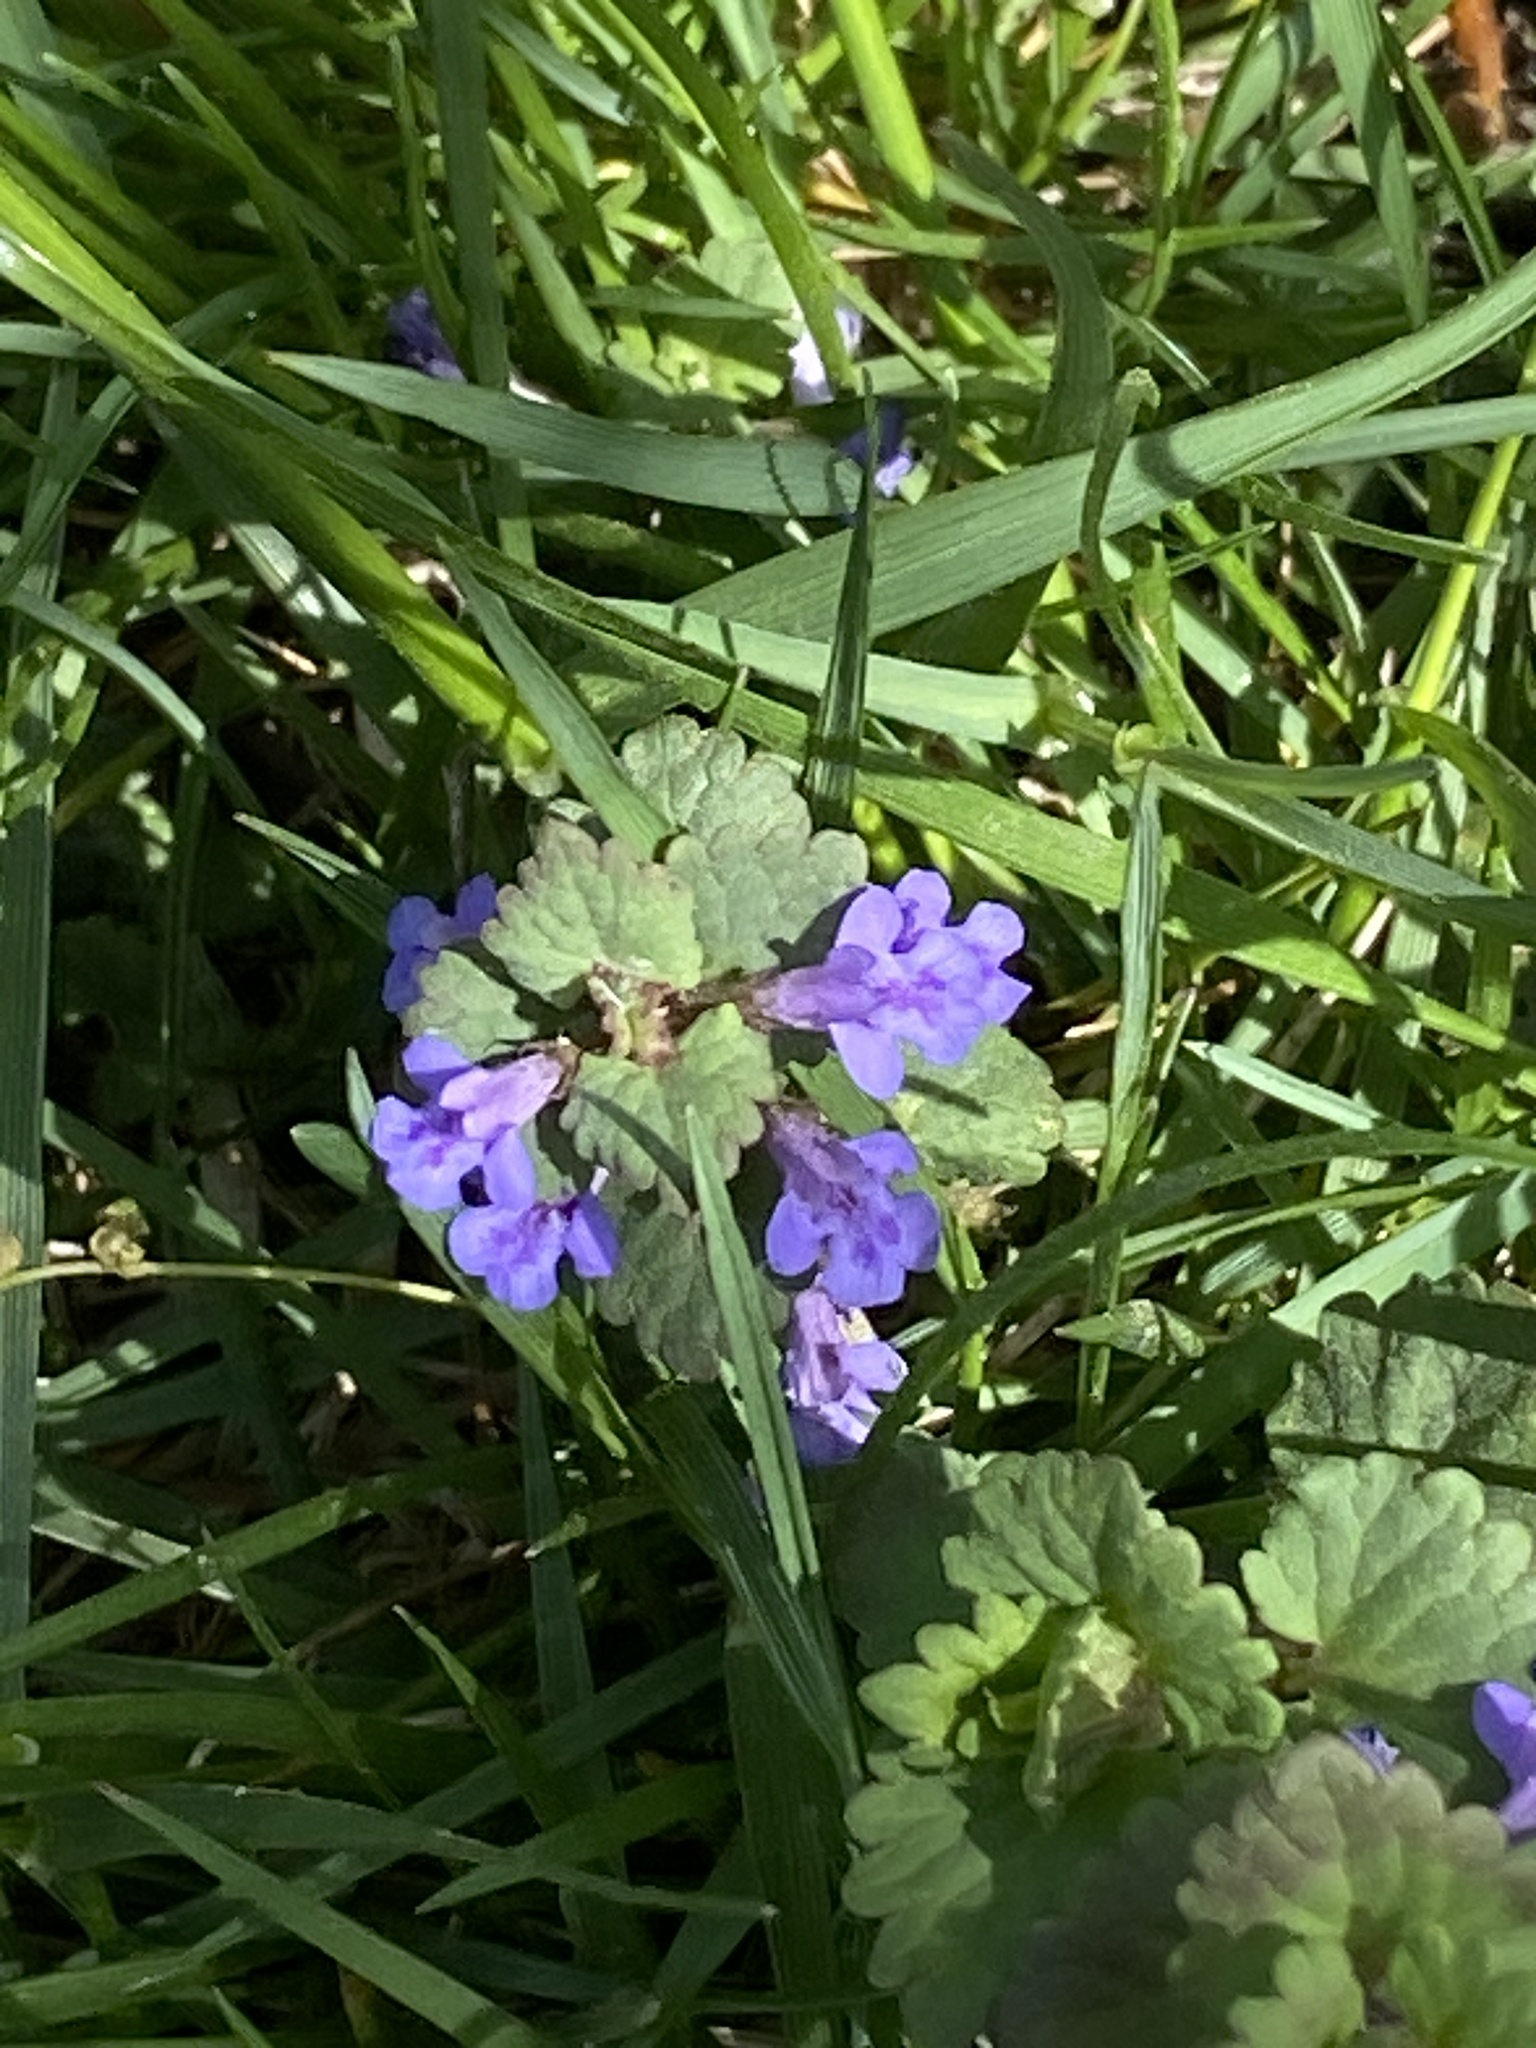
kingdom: Plantae
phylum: Tracheophyta
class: Magnoliopsida
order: Lamiales
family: Lamiaceae
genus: Glechoma
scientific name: Glechoma hederacea
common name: Ground ivy
